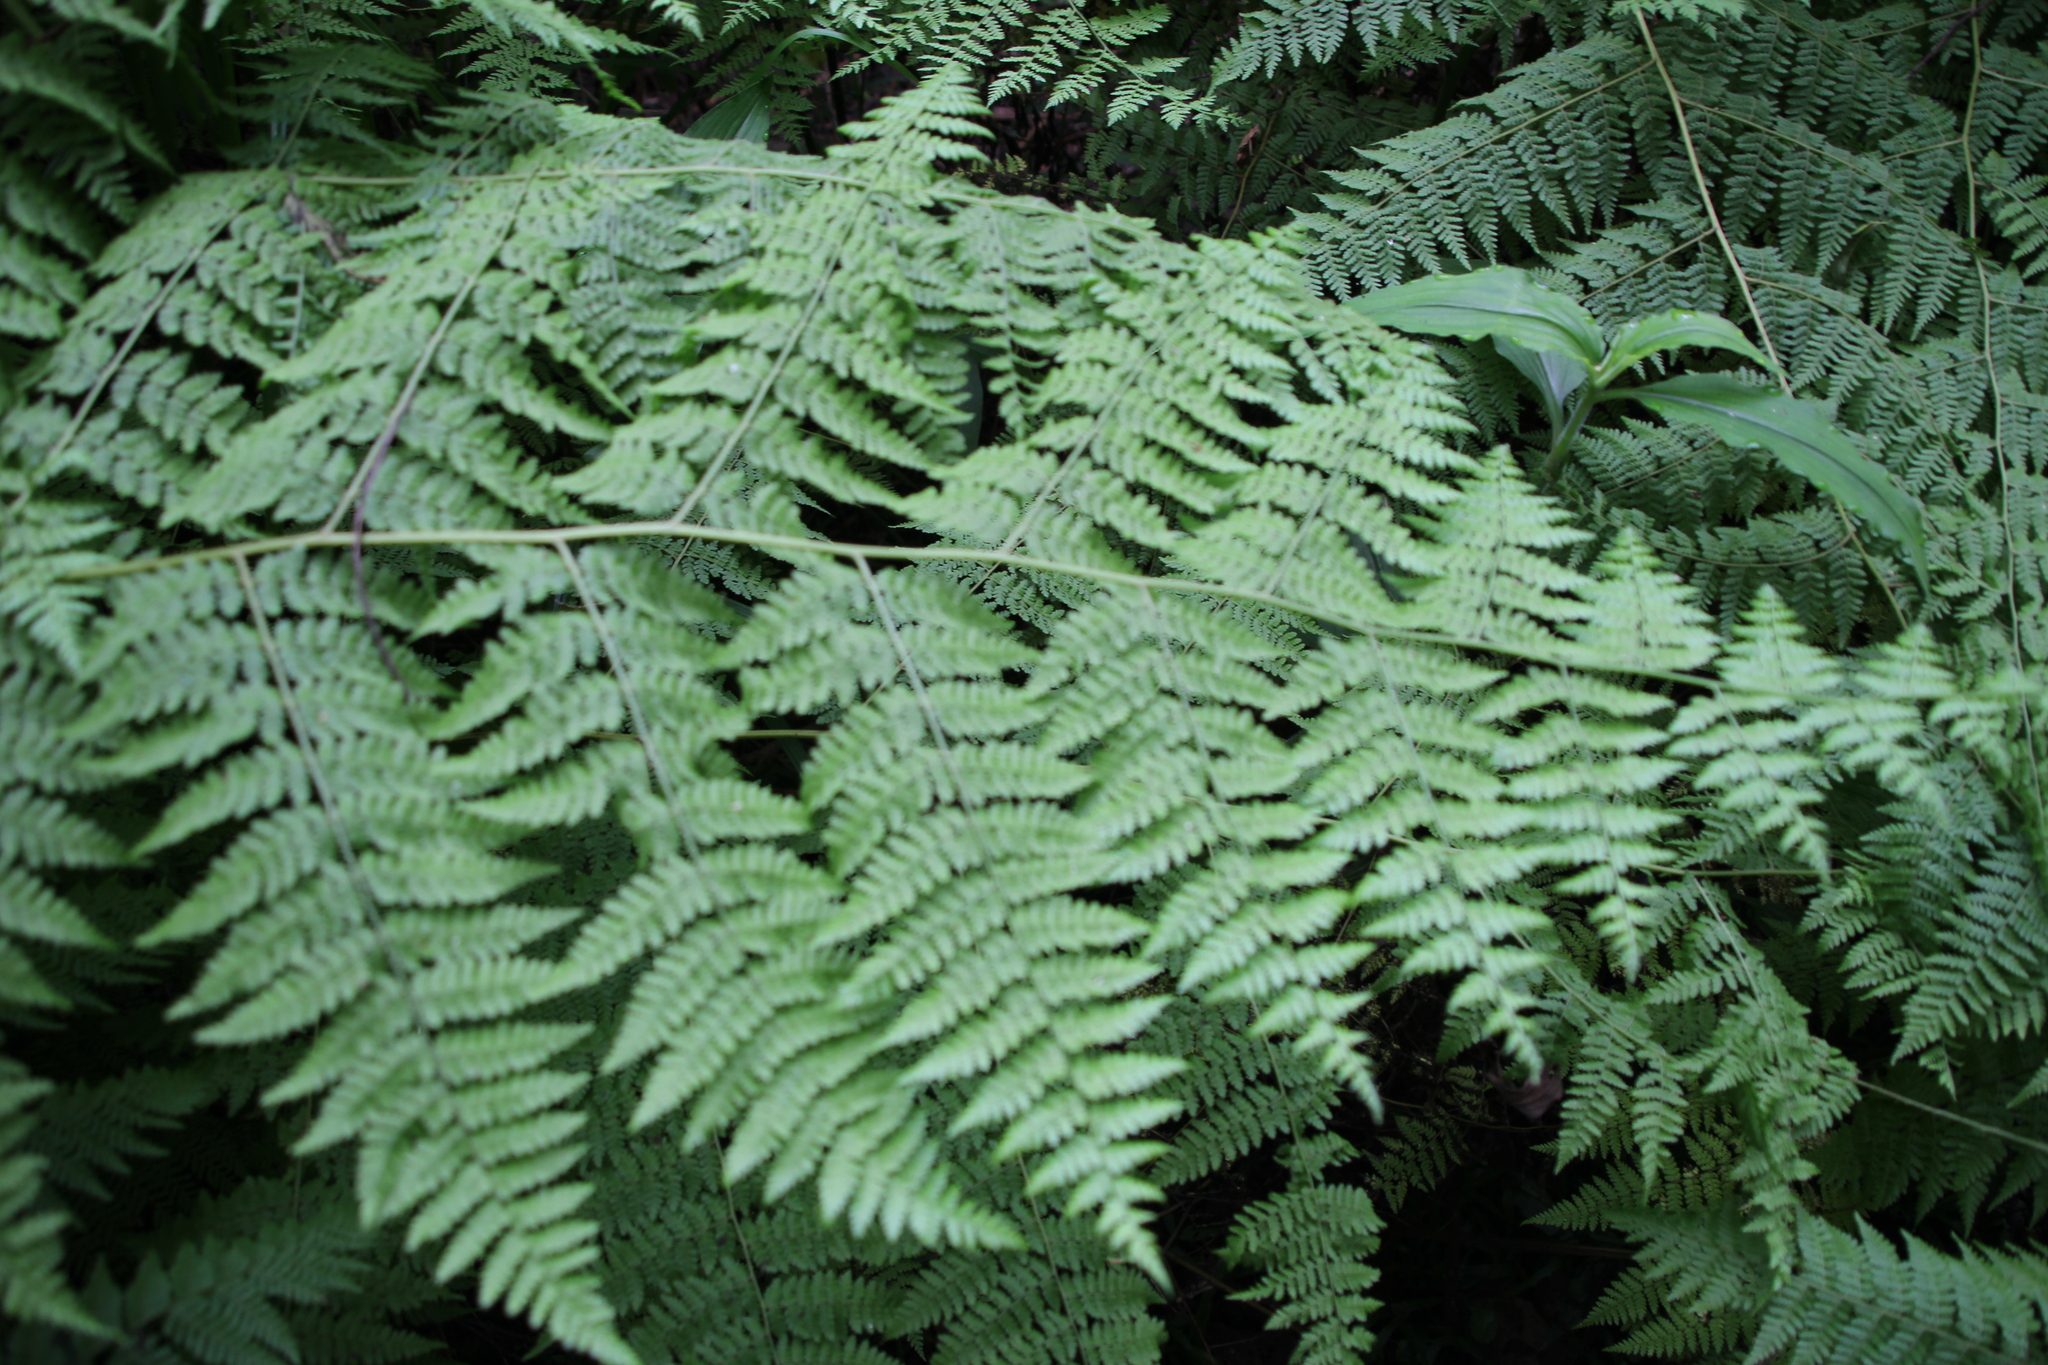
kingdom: Plantae
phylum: Tracheophyta
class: Polypodiopsida
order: Polypodiales
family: Dennstaedtiaceae
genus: Hypolepis
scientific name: Hypolepis sparsisora
